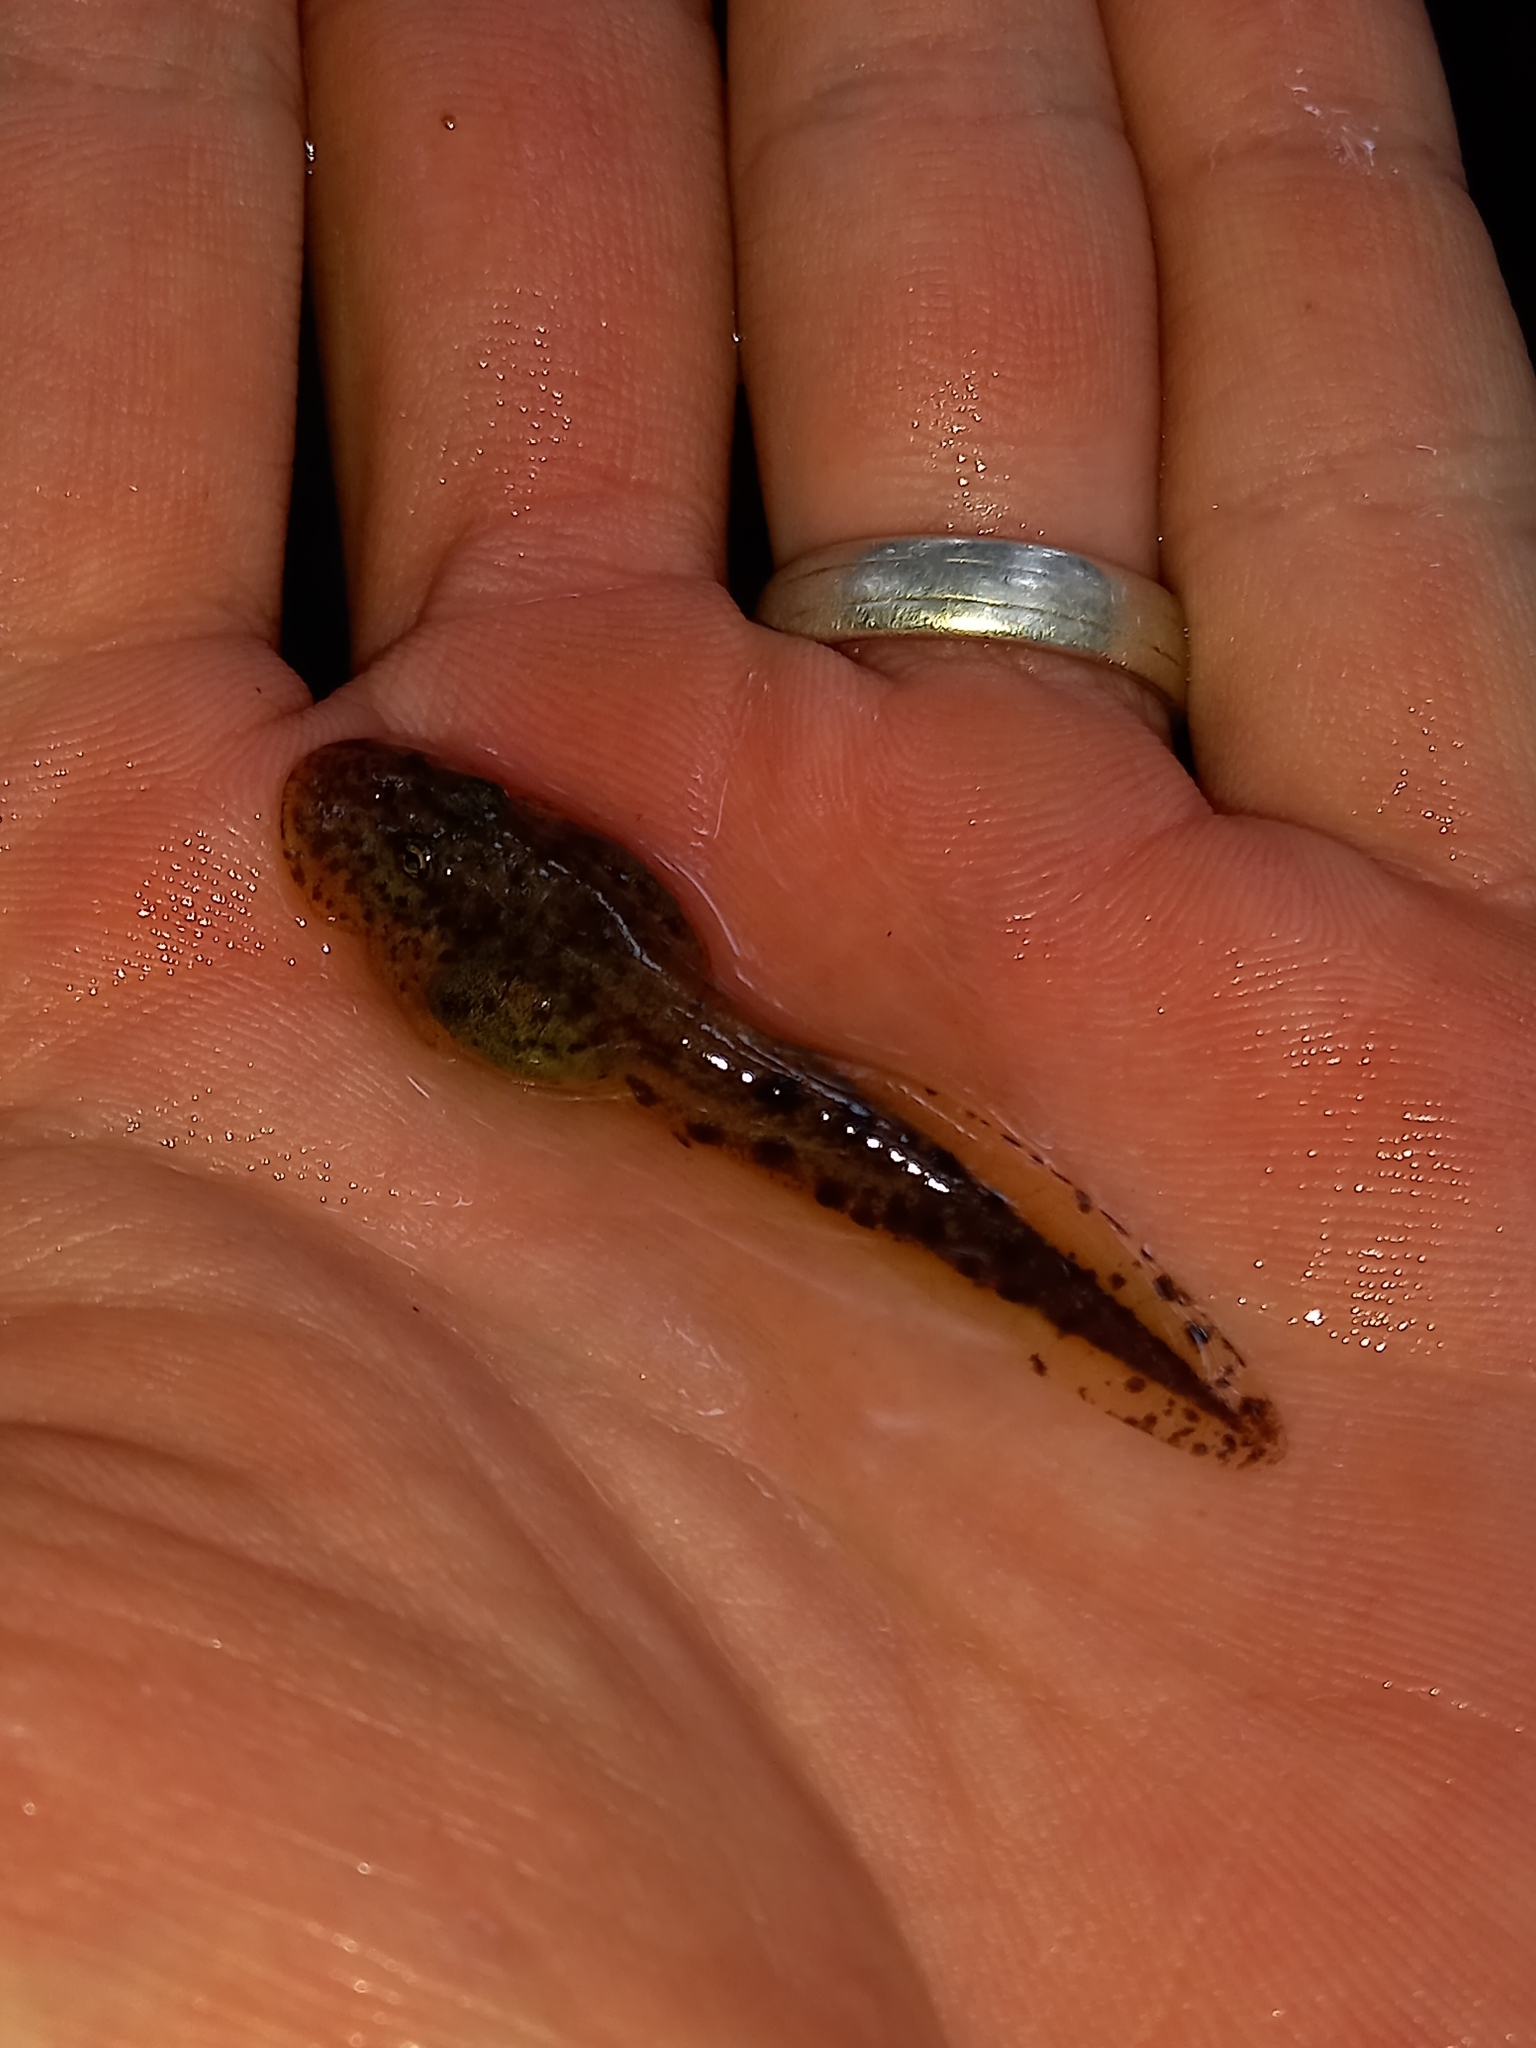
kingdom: Animalia
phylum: Chordata
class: Amphibia
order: Anura
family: Heleophrynidae
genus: Heleophryne
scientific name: Heleophryne regis
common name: Royal ghost frog
